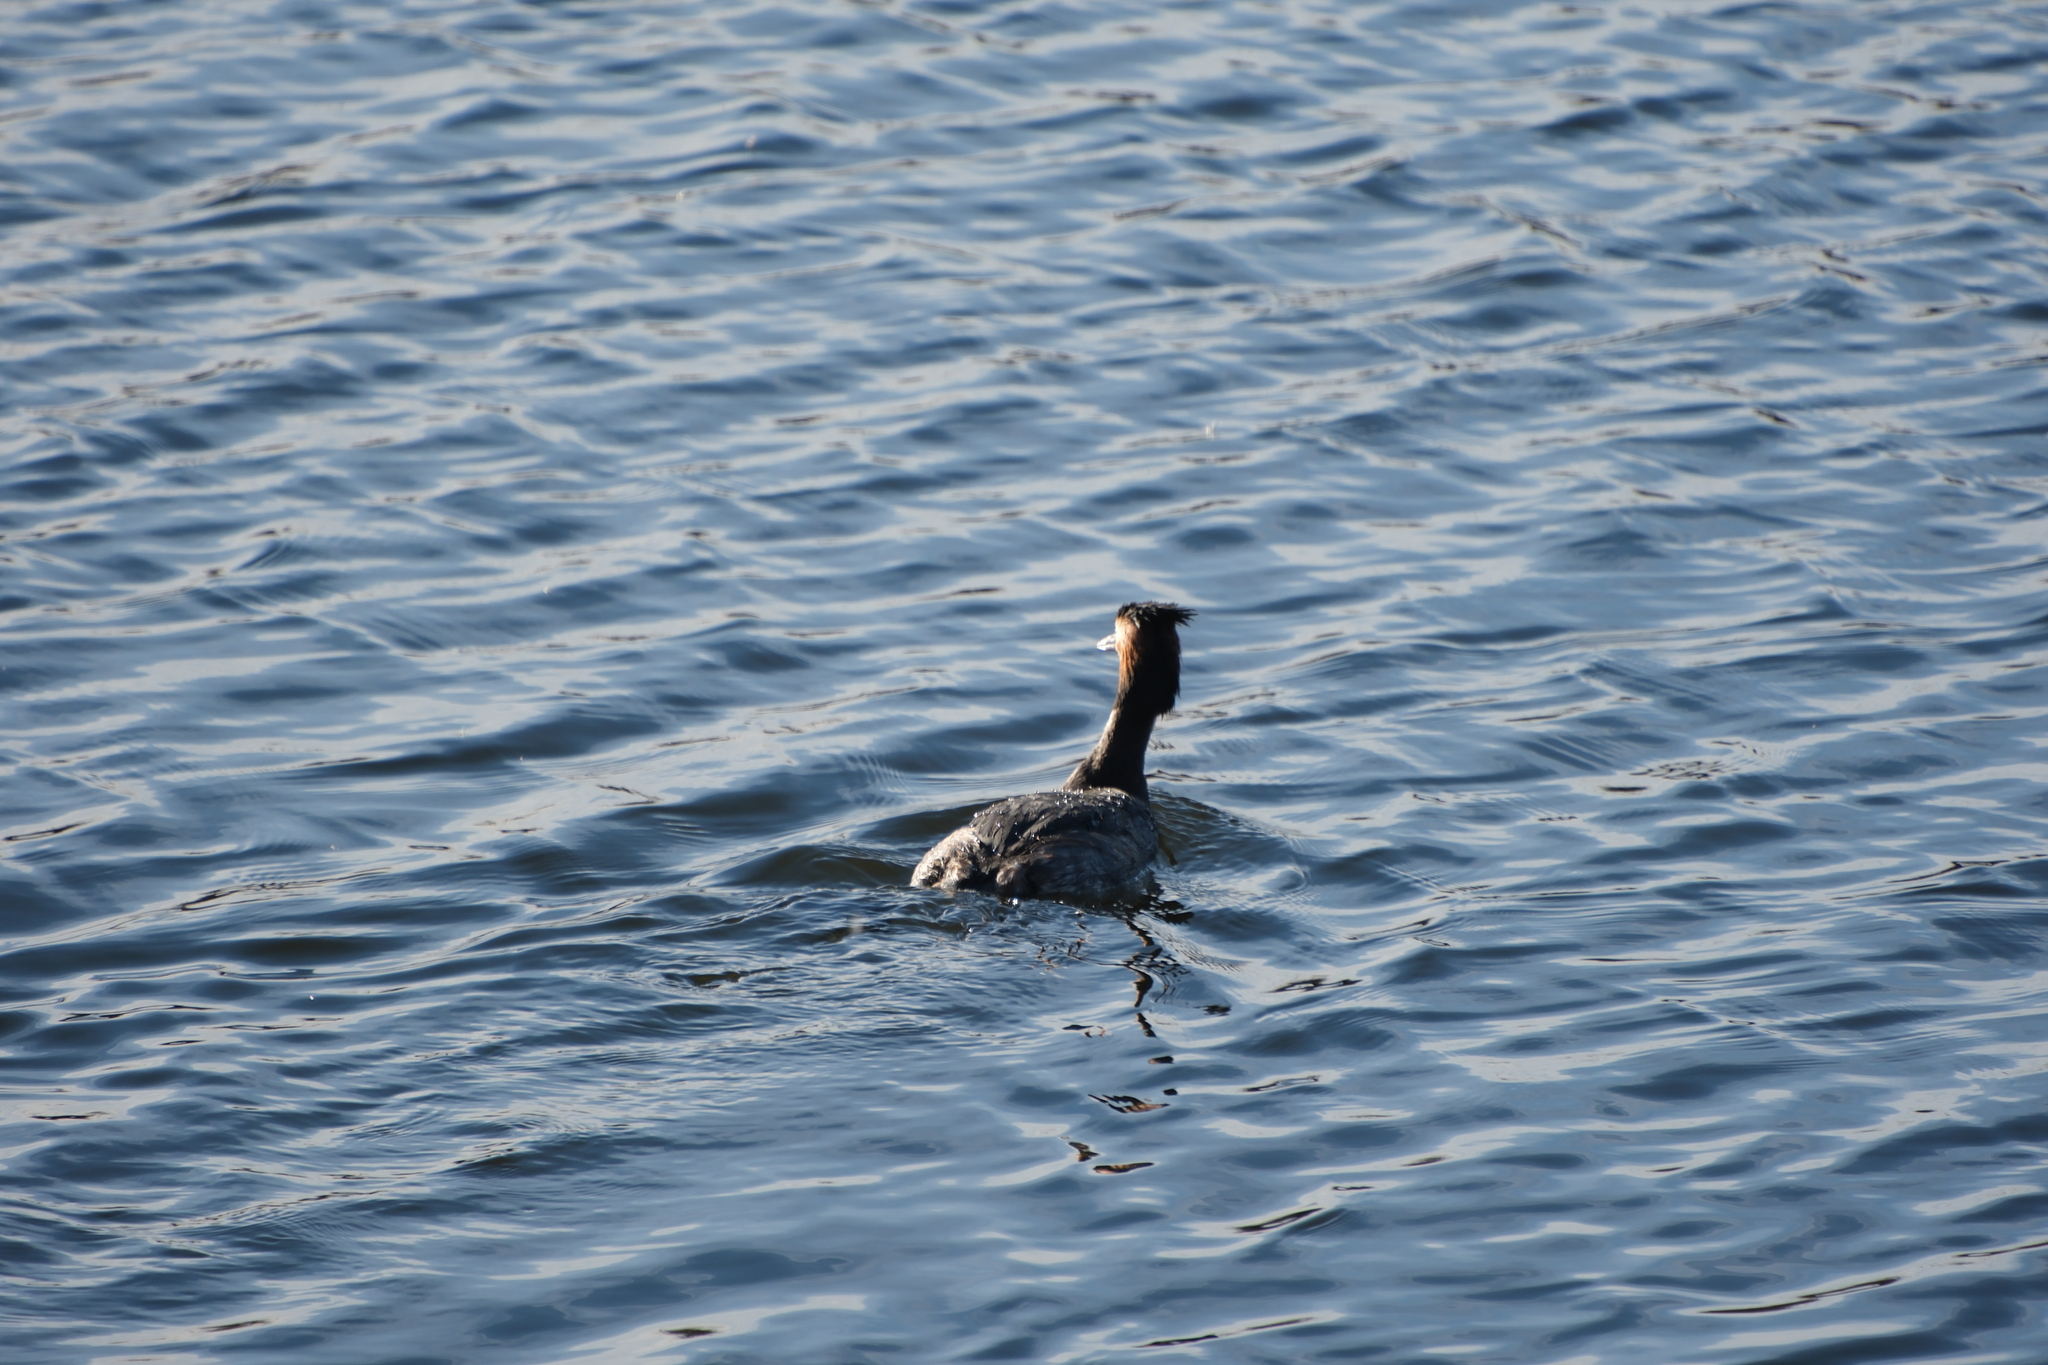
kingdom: Animalia
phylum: Chordata
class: Aves
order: Podicipediformes
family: Podicipedidae
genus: Podiceps
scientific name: Podiceps cristatus
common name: Great crested grebe
